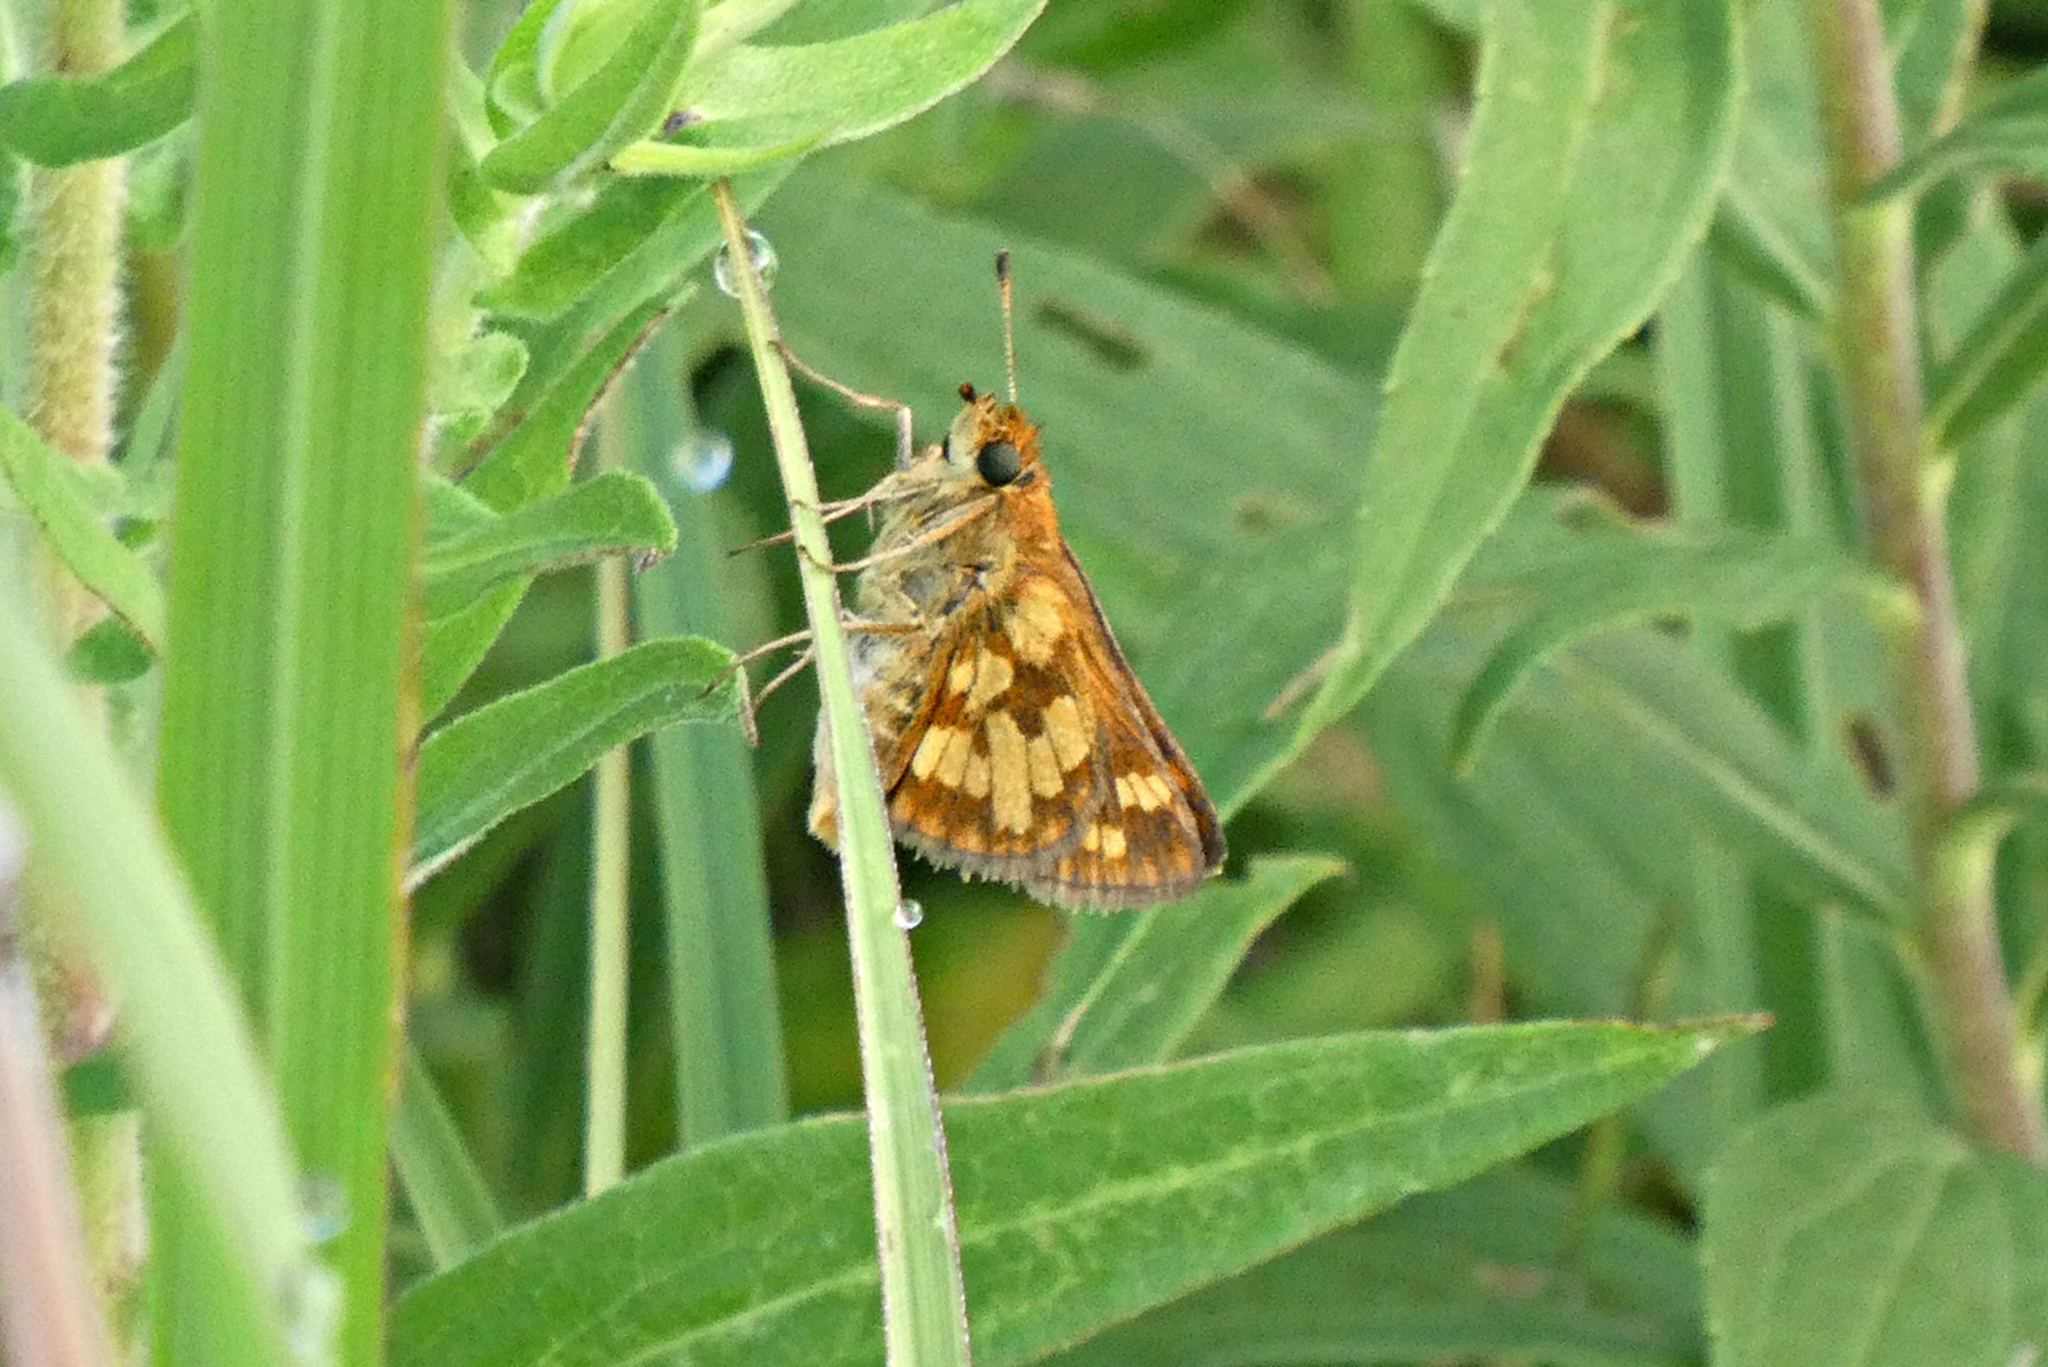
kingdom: Animalia
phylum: Arthropoda
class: Insecta
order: Lepidoptera
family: Hesperiidae
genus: Polites
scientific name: Polites coras
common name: Peck's skipper
